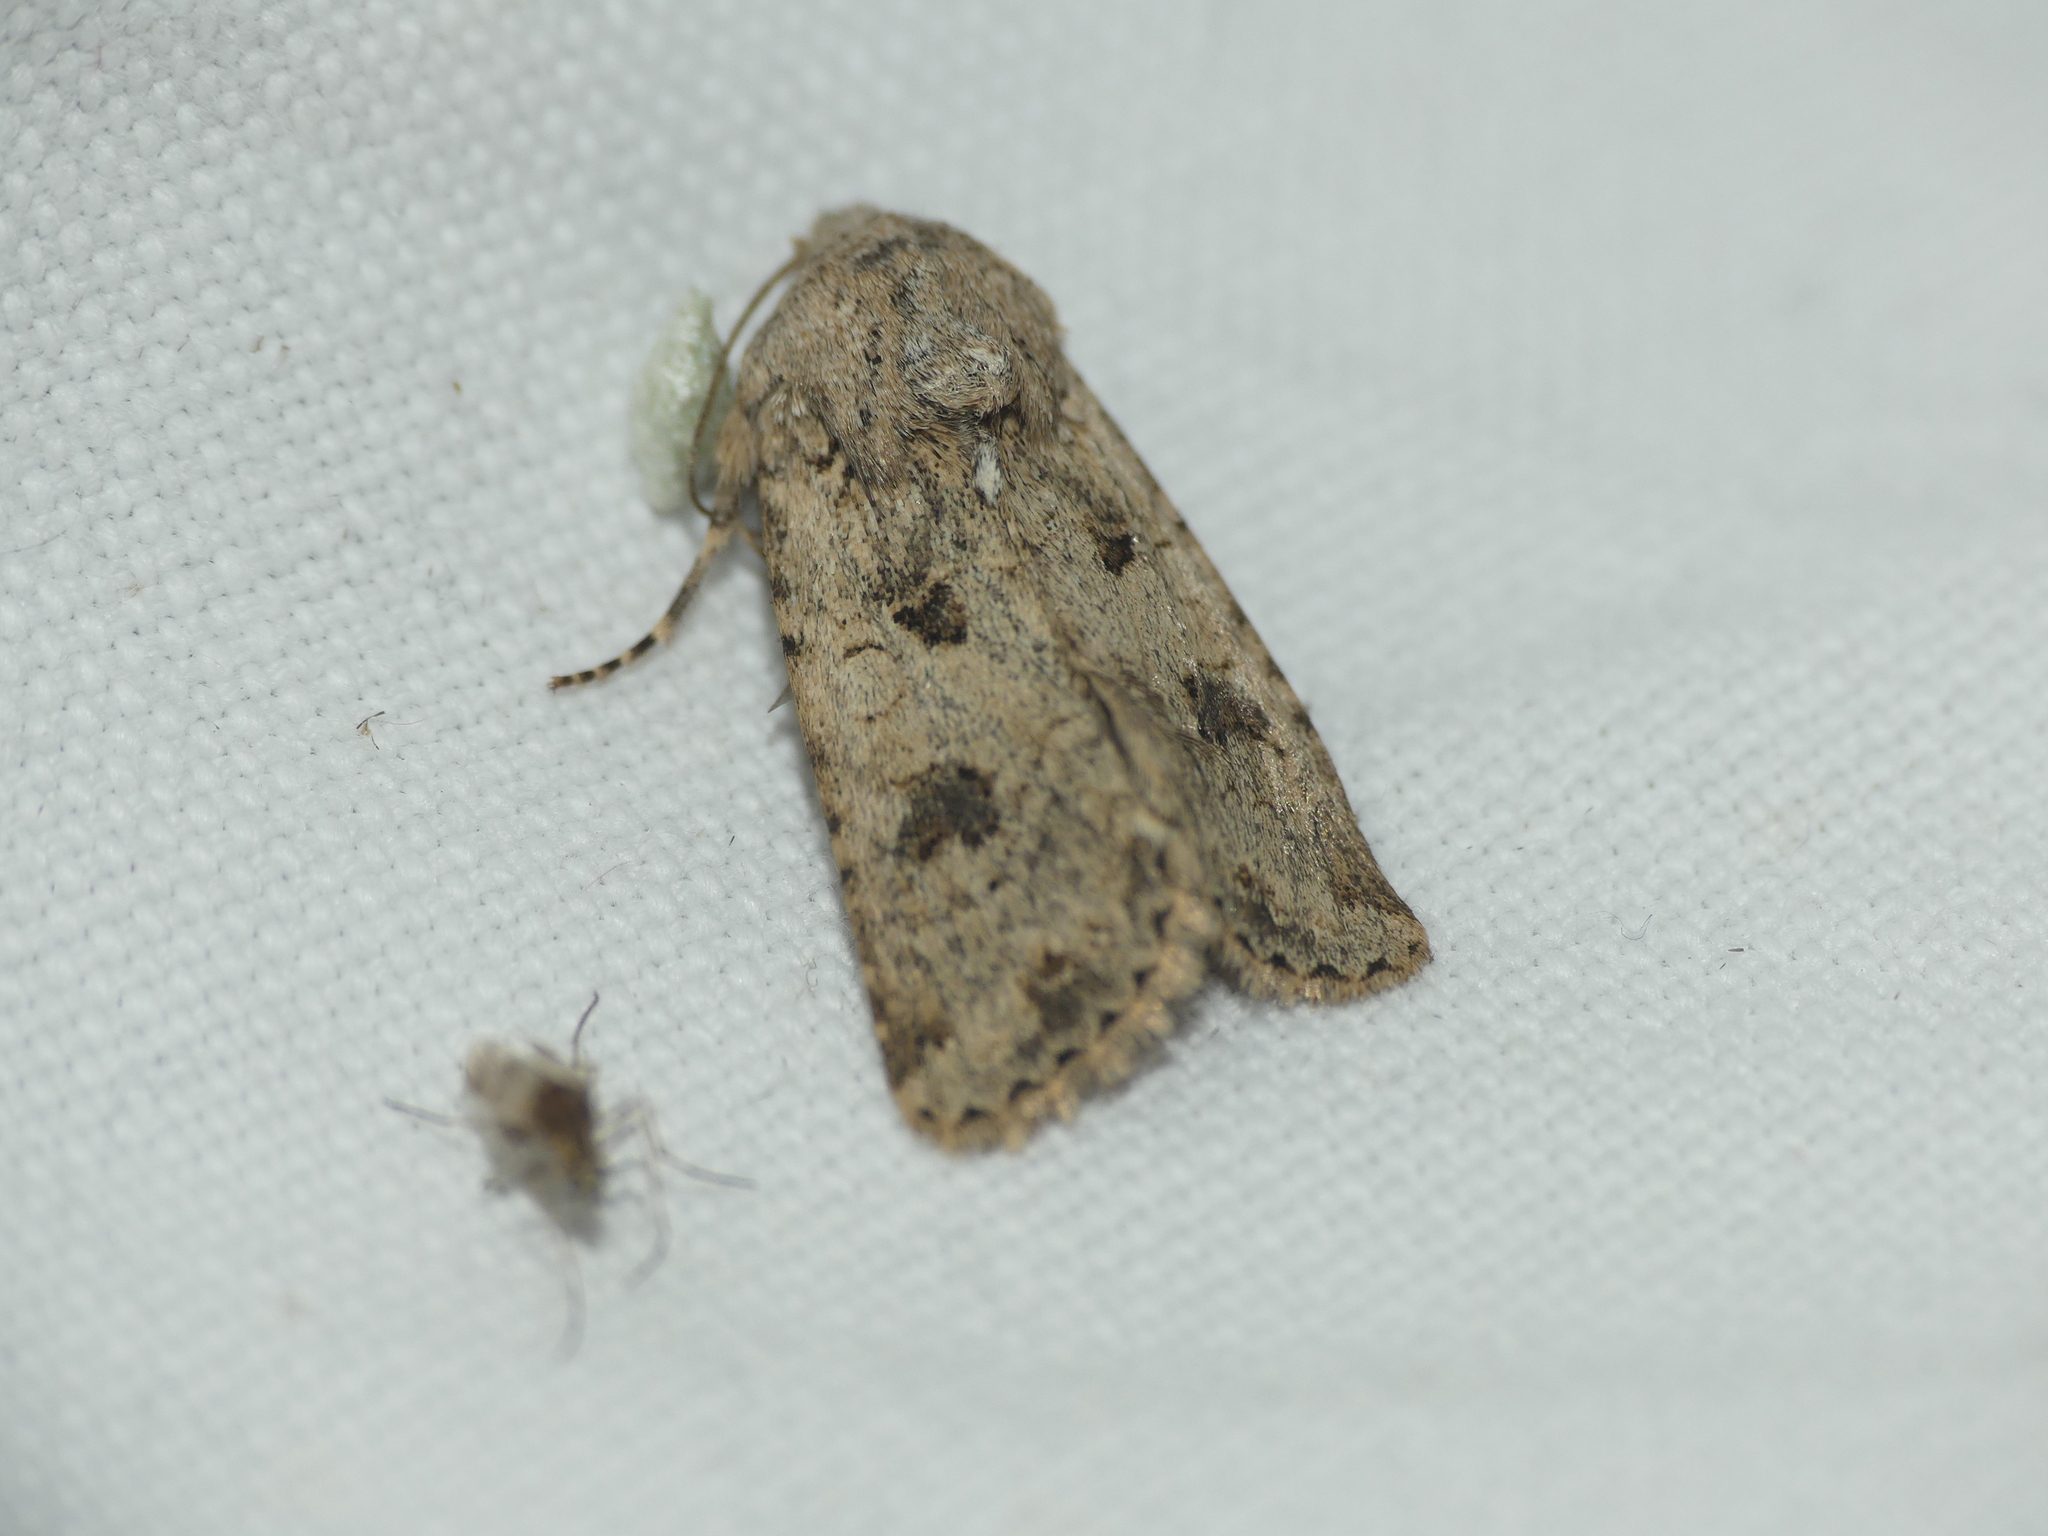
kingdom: Animalia
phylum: Arthropoda
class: Insecta
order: Lepidoptera
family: Noctuidae
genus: Anarta
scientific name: Anarta sodae
